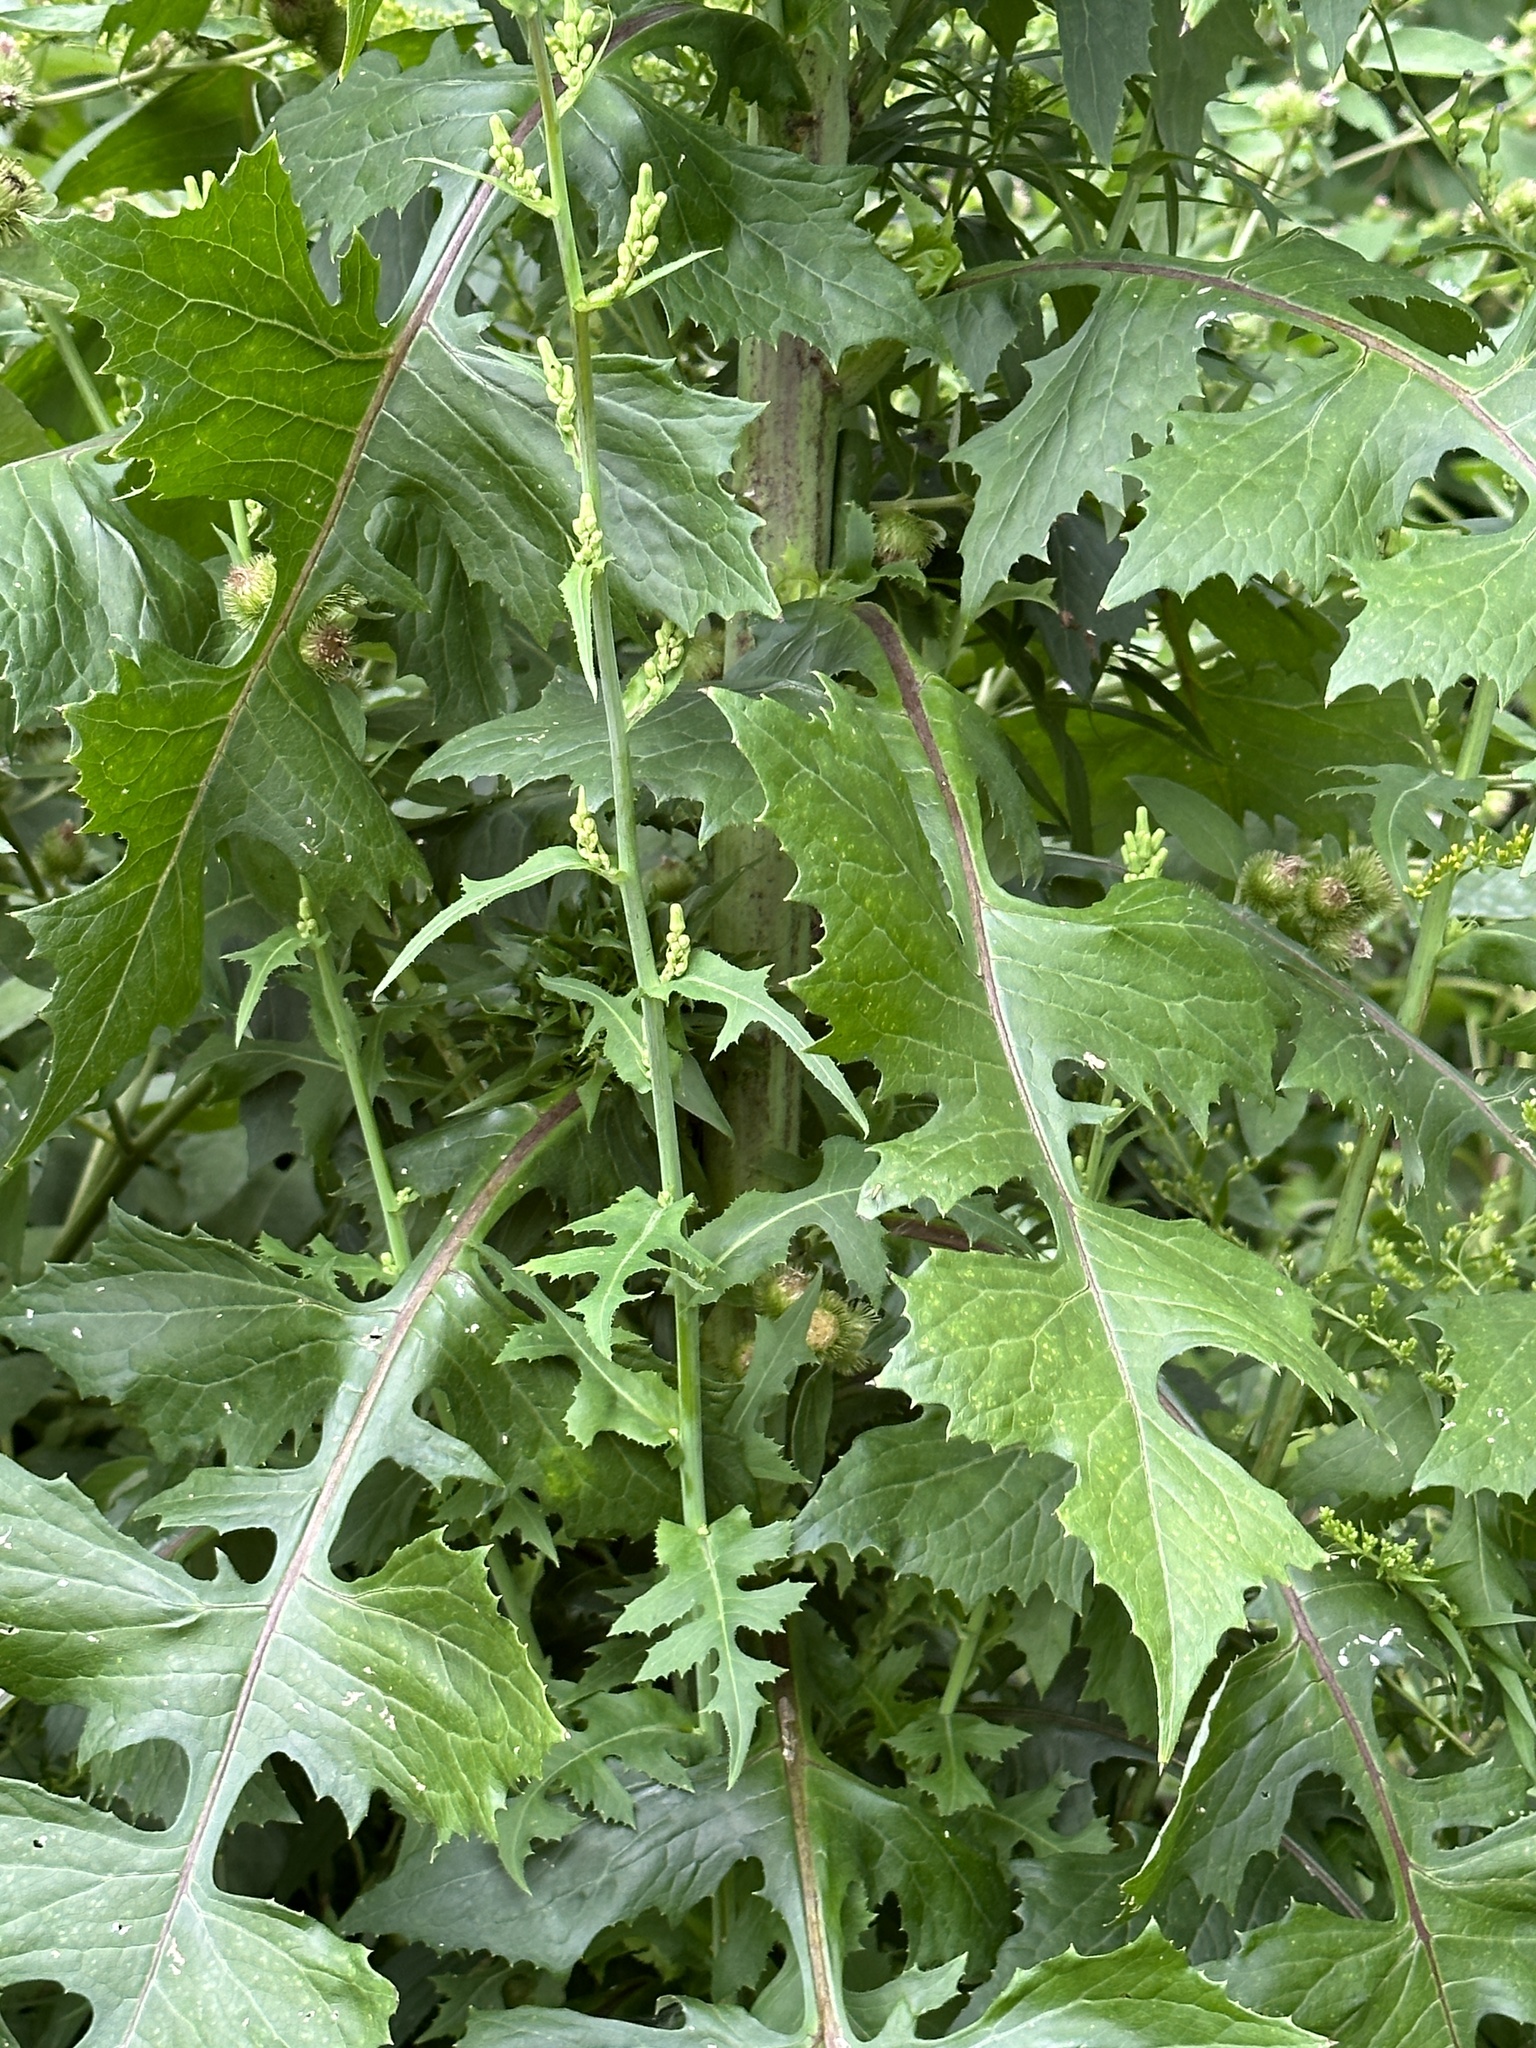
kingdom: Plantae
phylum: Tracheophyta
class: Magnoliopsida
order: Asterales
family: Asteraceae
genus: Lactuca
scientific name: Lactuca biennis
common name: Blue wood lettuce
